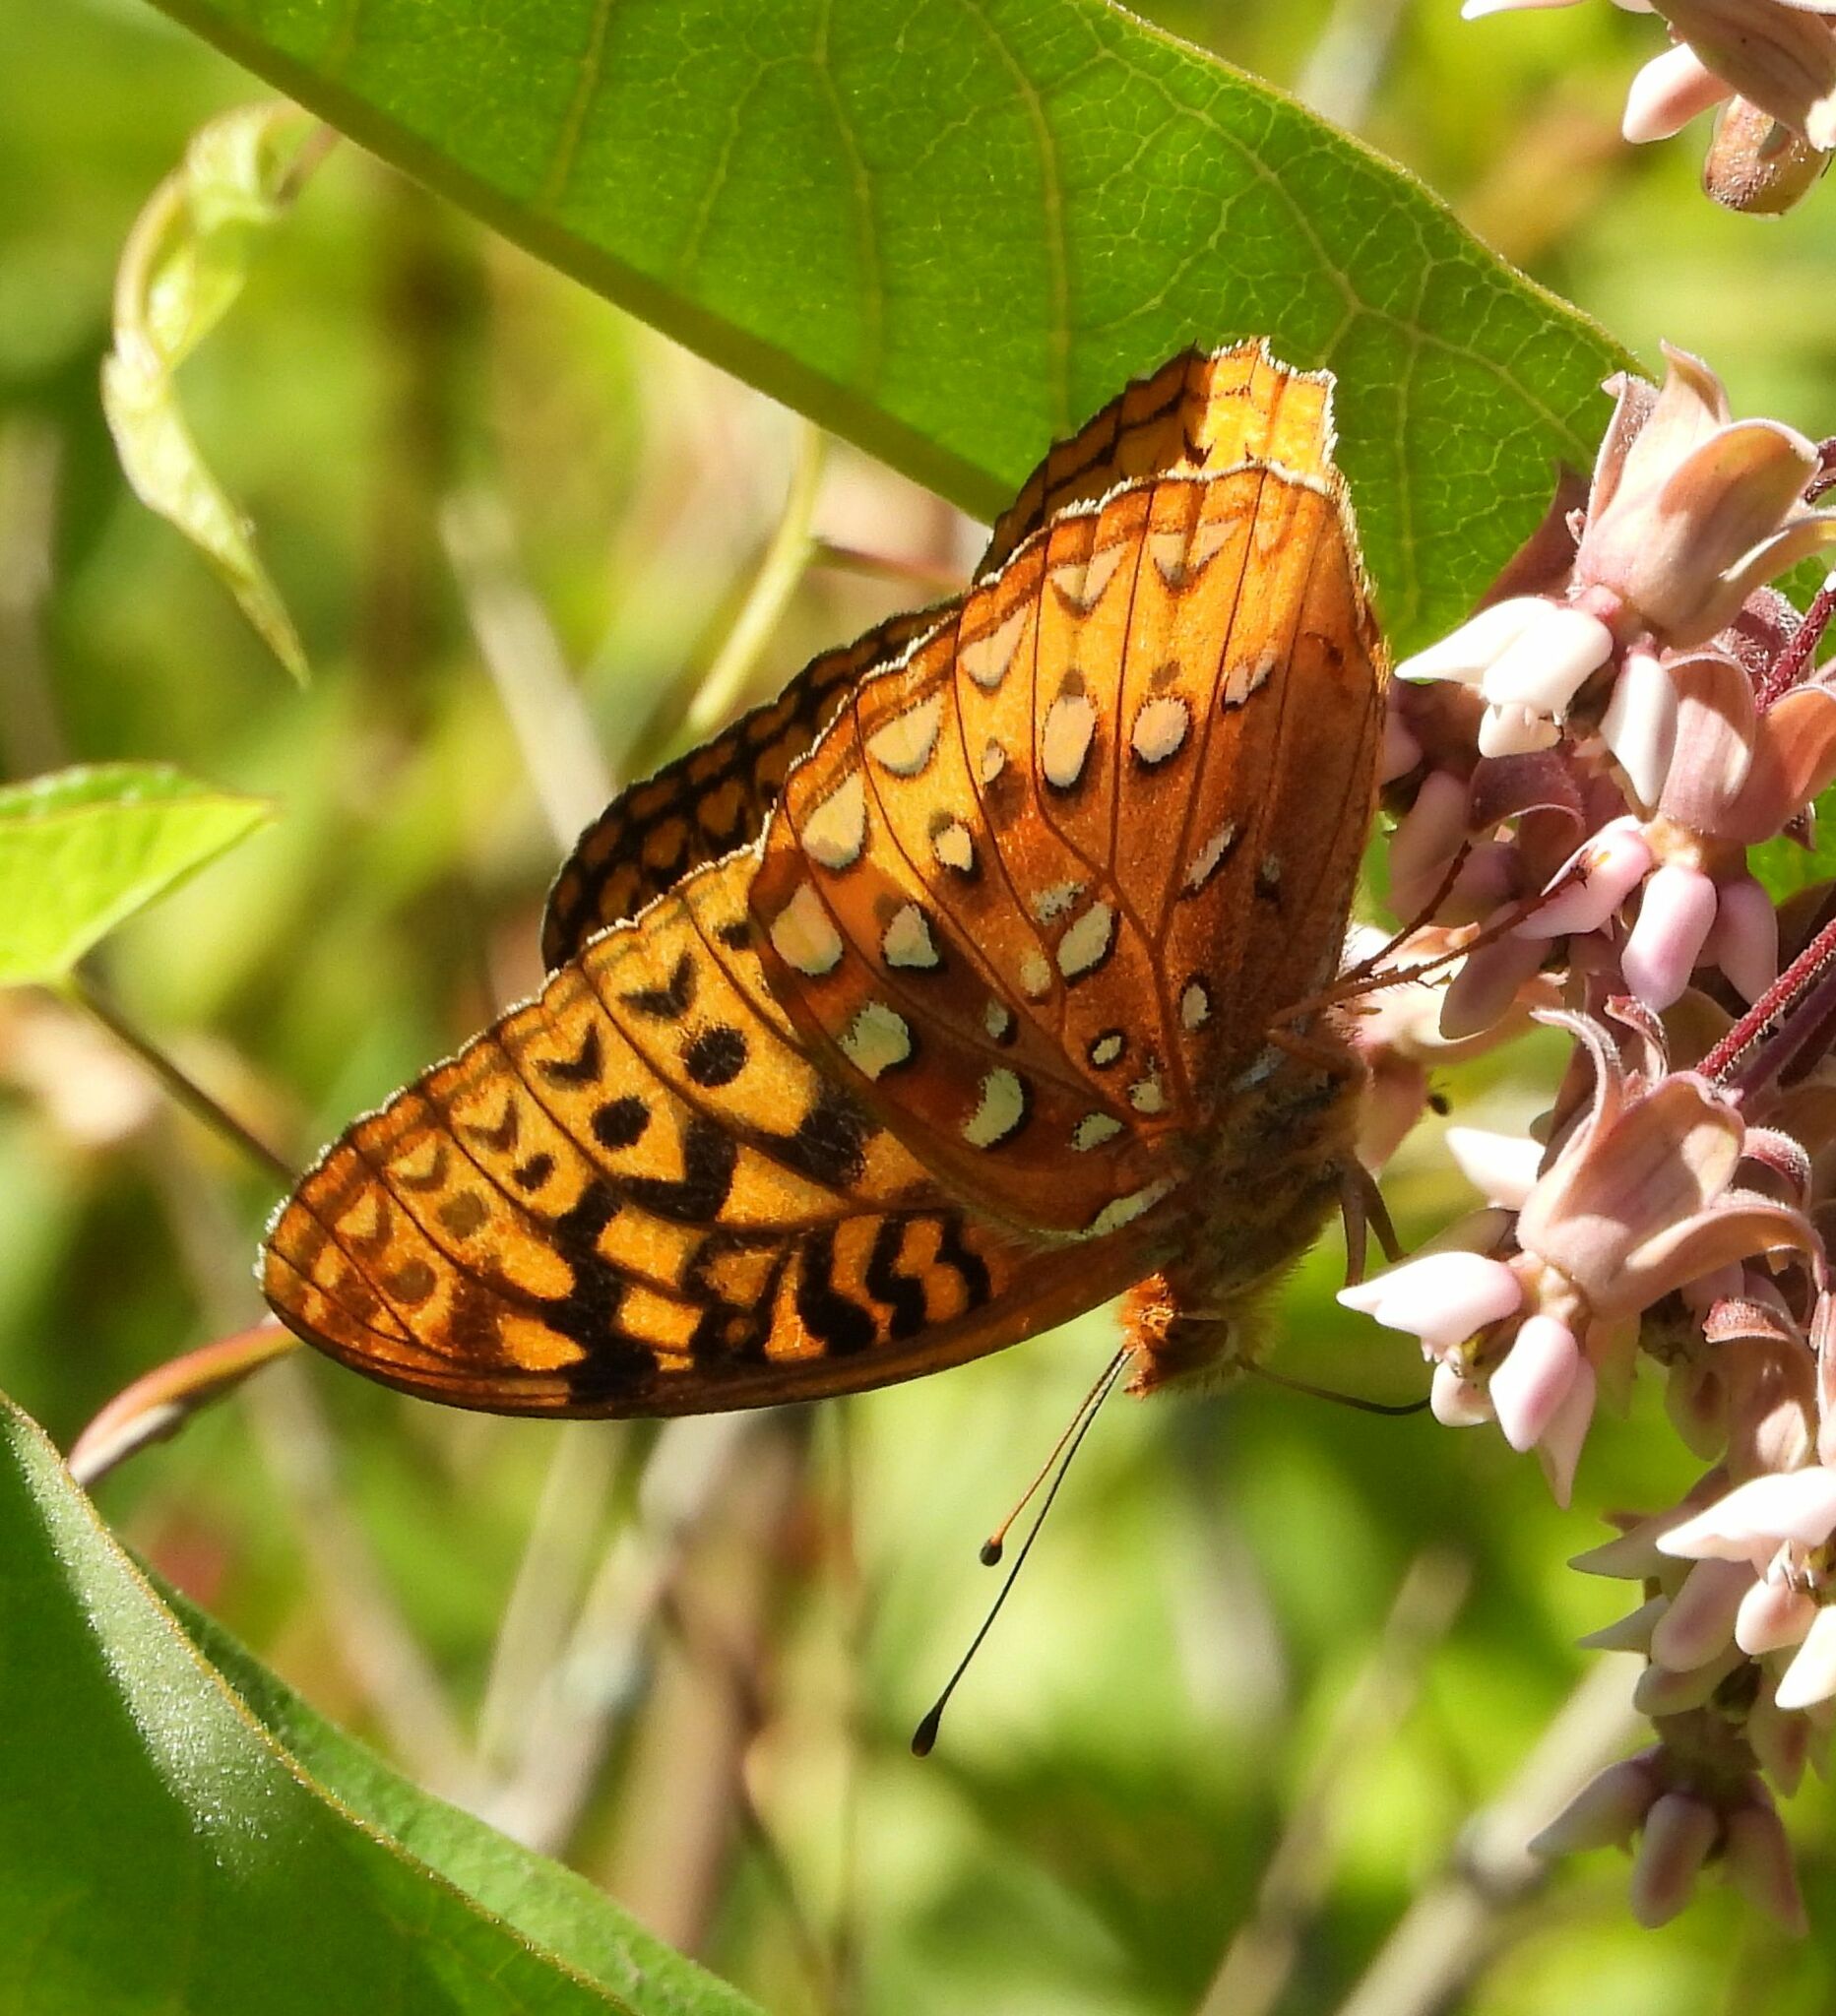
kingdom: Animalia
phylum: Arthropoda
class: Insecta
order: Lepidoptera
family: Nymphalidae
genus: Speyeria
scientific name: Speyeria cybele
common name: Great spangled fritillary
